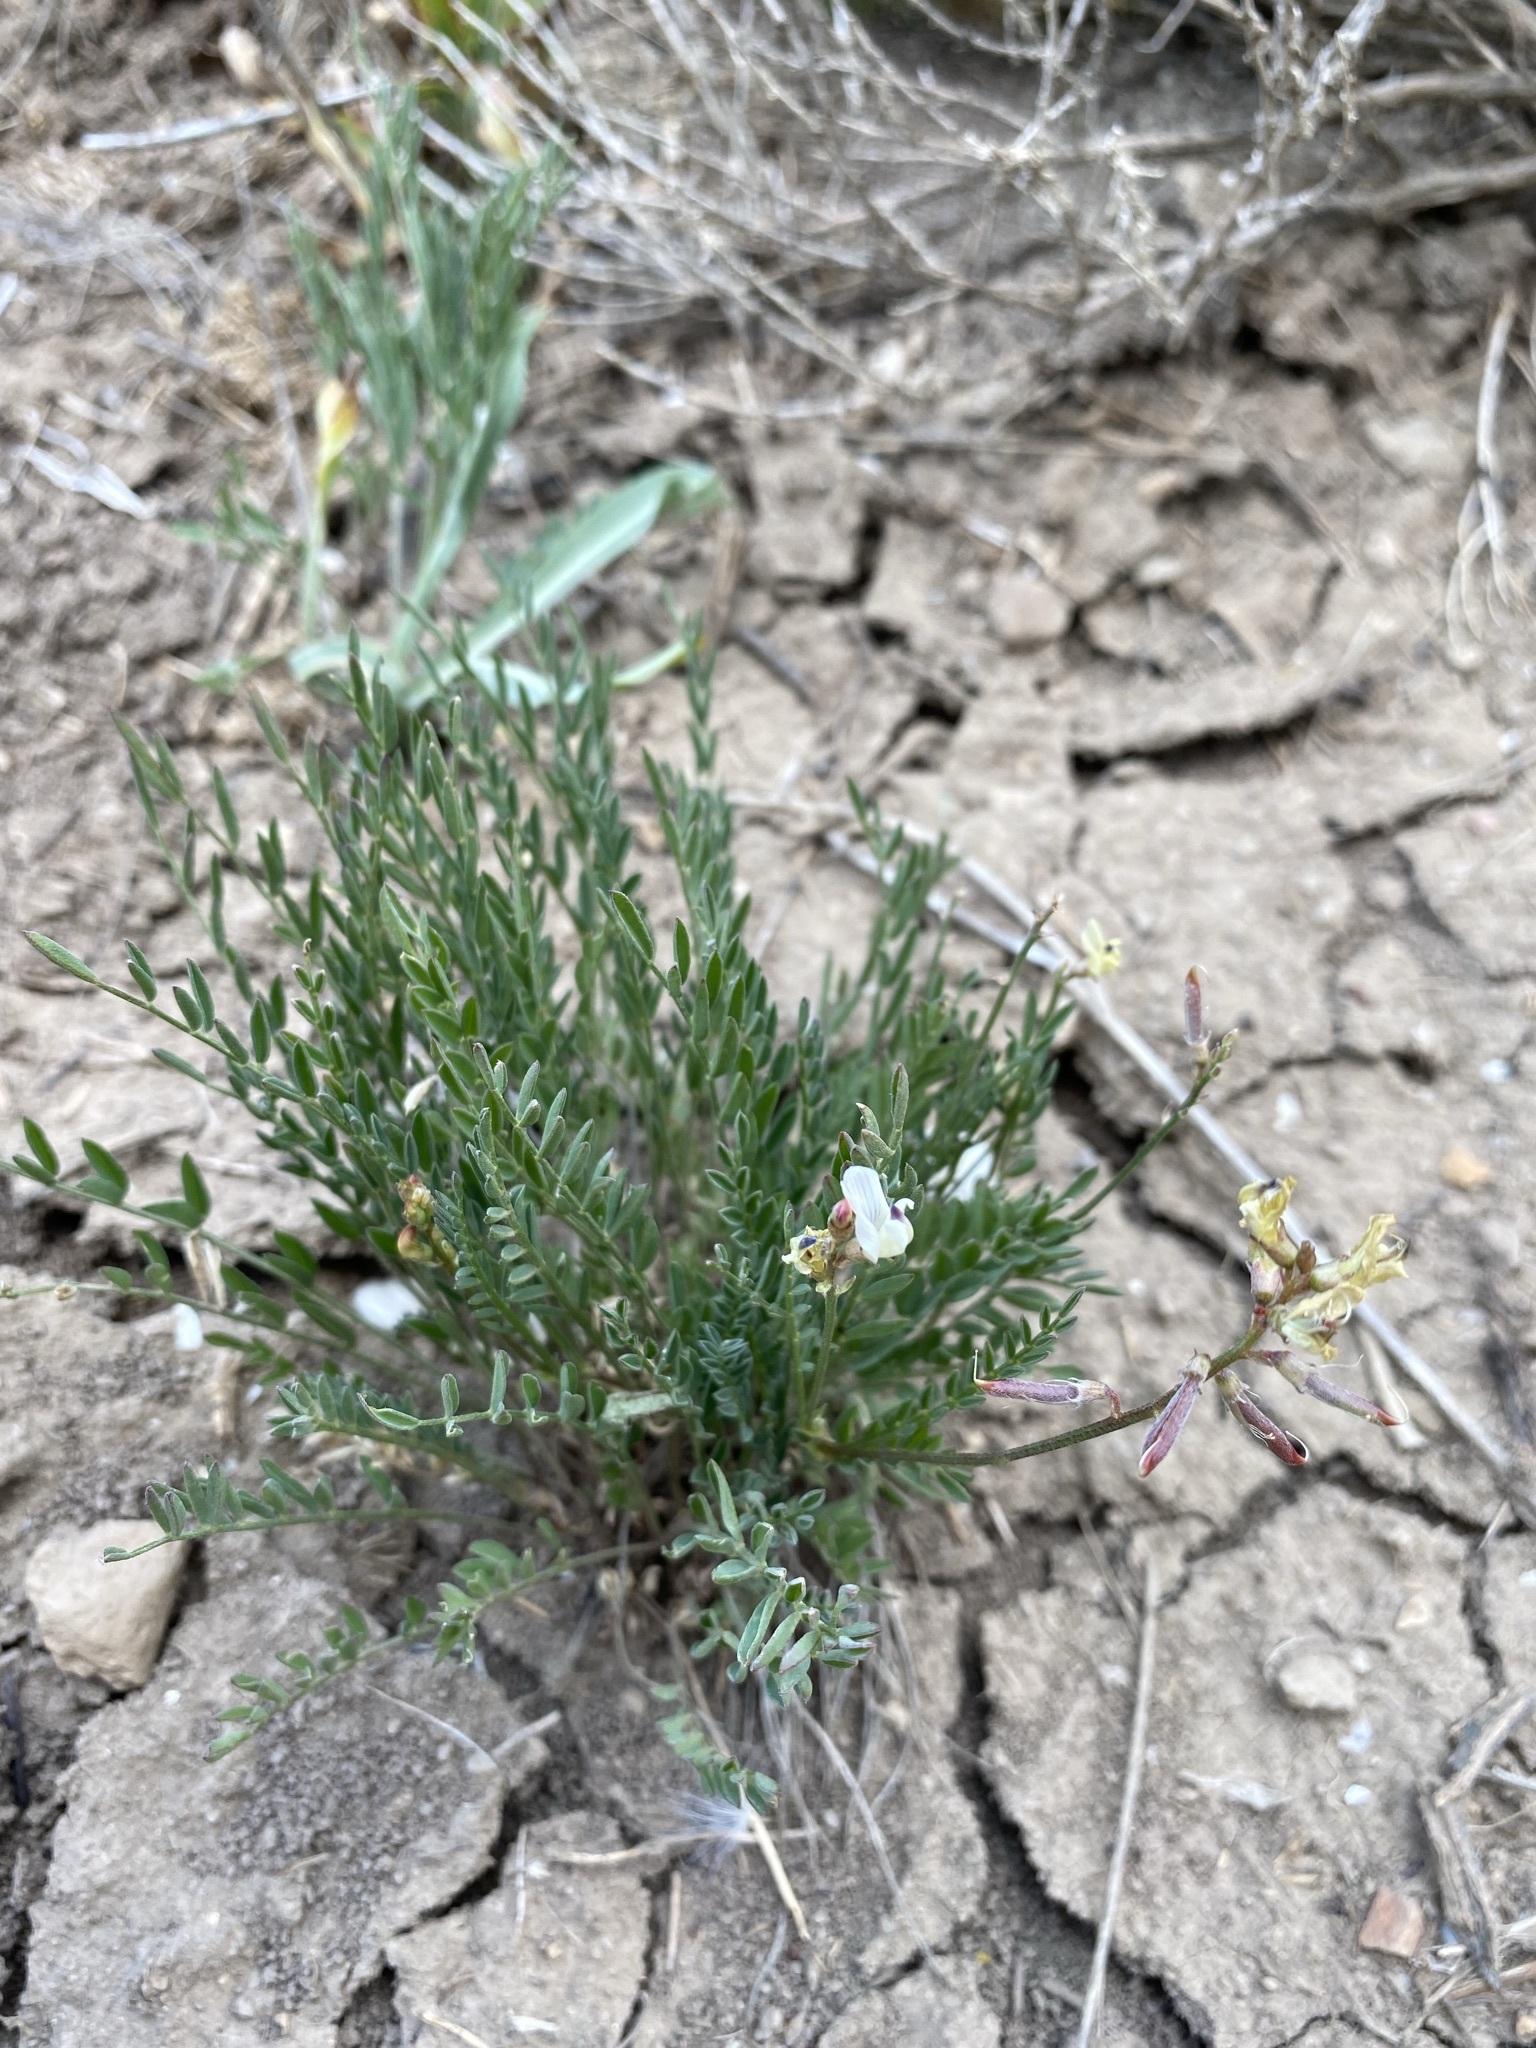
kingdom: Plantae
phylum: Tracheophyta
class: Magnoliopsida
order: Fabales
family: Fabaceae
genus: Astragalus
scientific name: Astragalus miser
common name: Timber milkvetch
